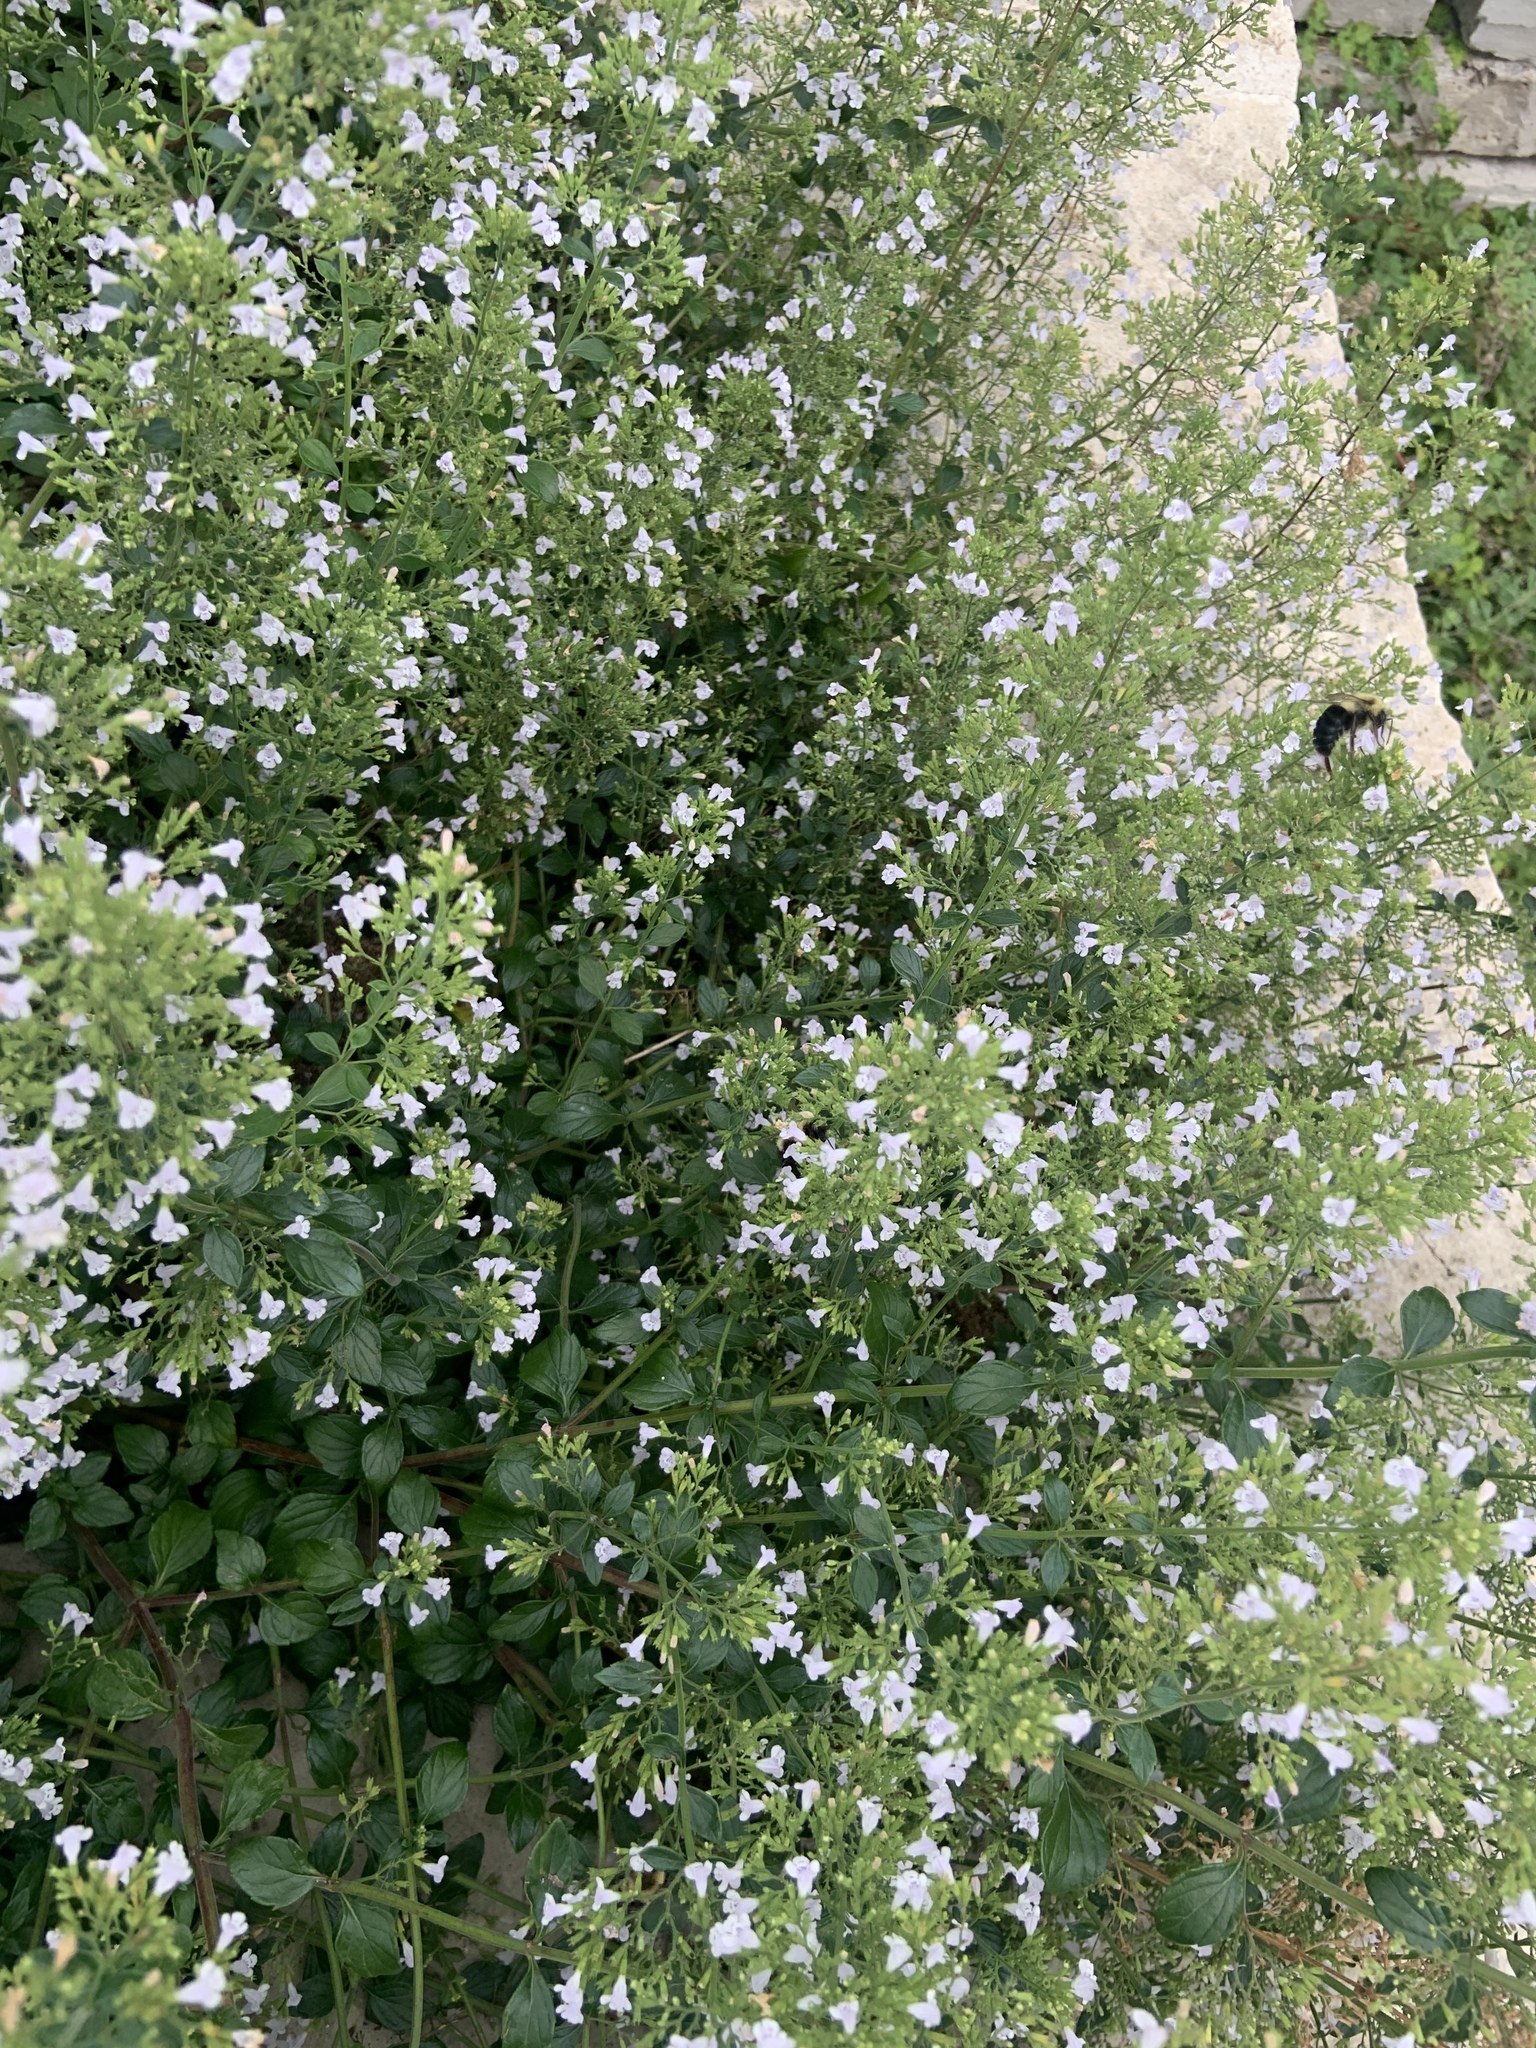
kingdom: Animalia
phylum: Arthropoda
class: Insecta
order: Hymenoptera
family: Apidae
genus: Bombus
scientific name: Bombus impatiens
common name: Common eastern bumble bee
